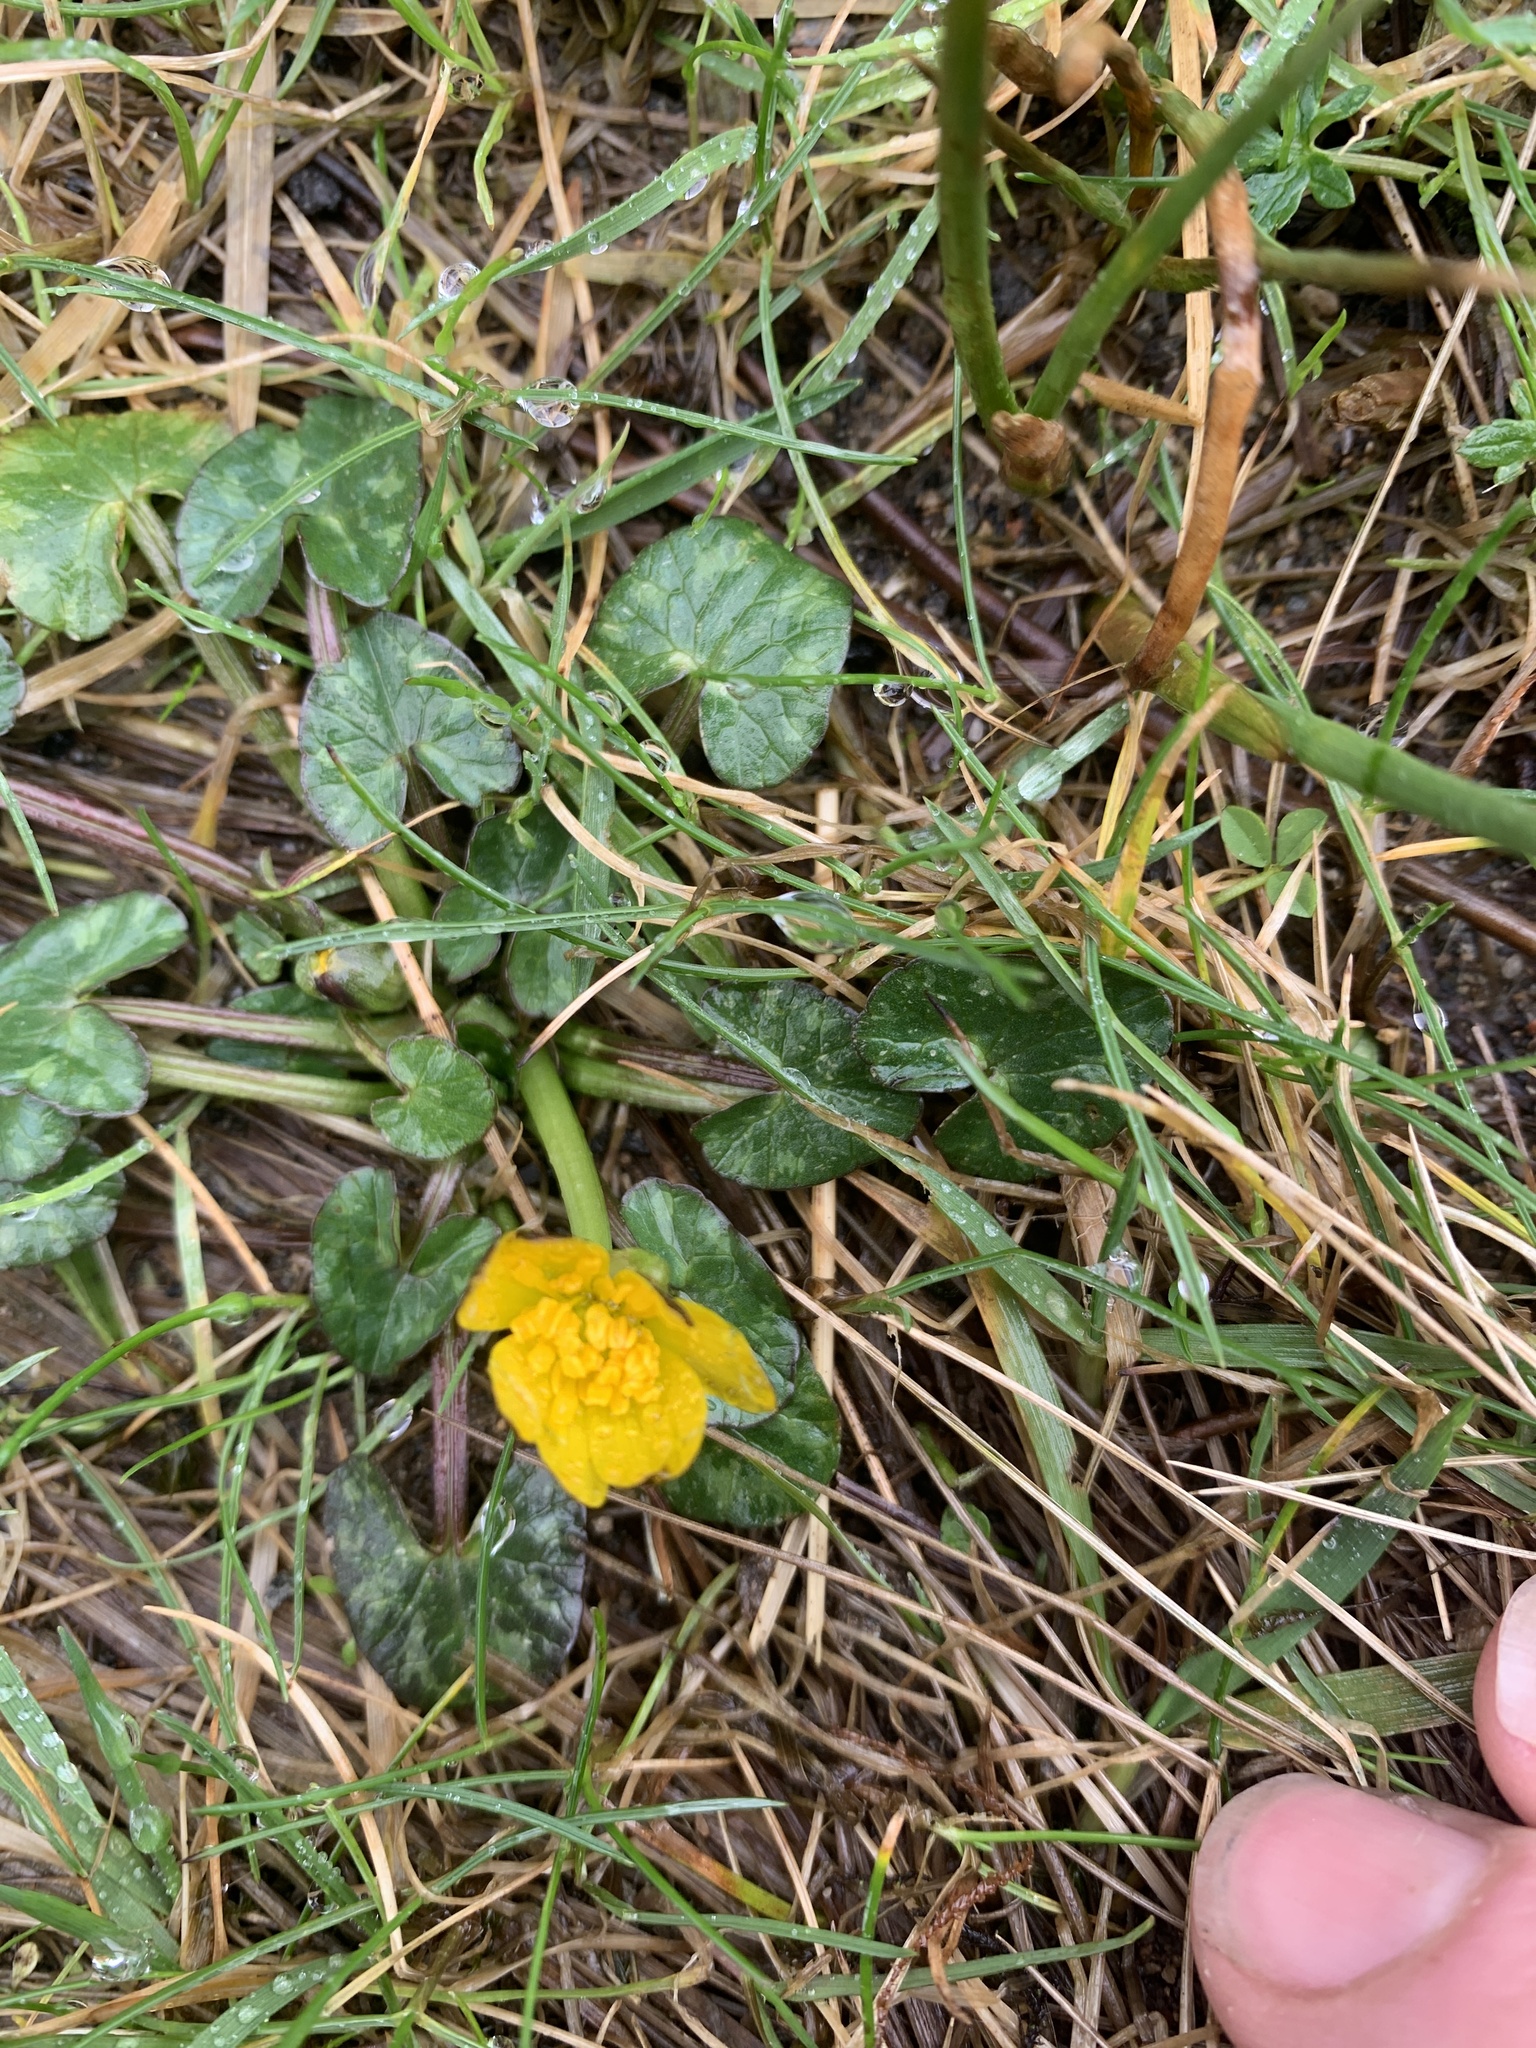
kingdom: Plantae
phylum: Tracheophyta
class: Magnoliopsida
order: Ranunculales
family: Ranunculaceae
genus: Ficaria
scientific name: Ficaria verna
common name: Lesser celandine
